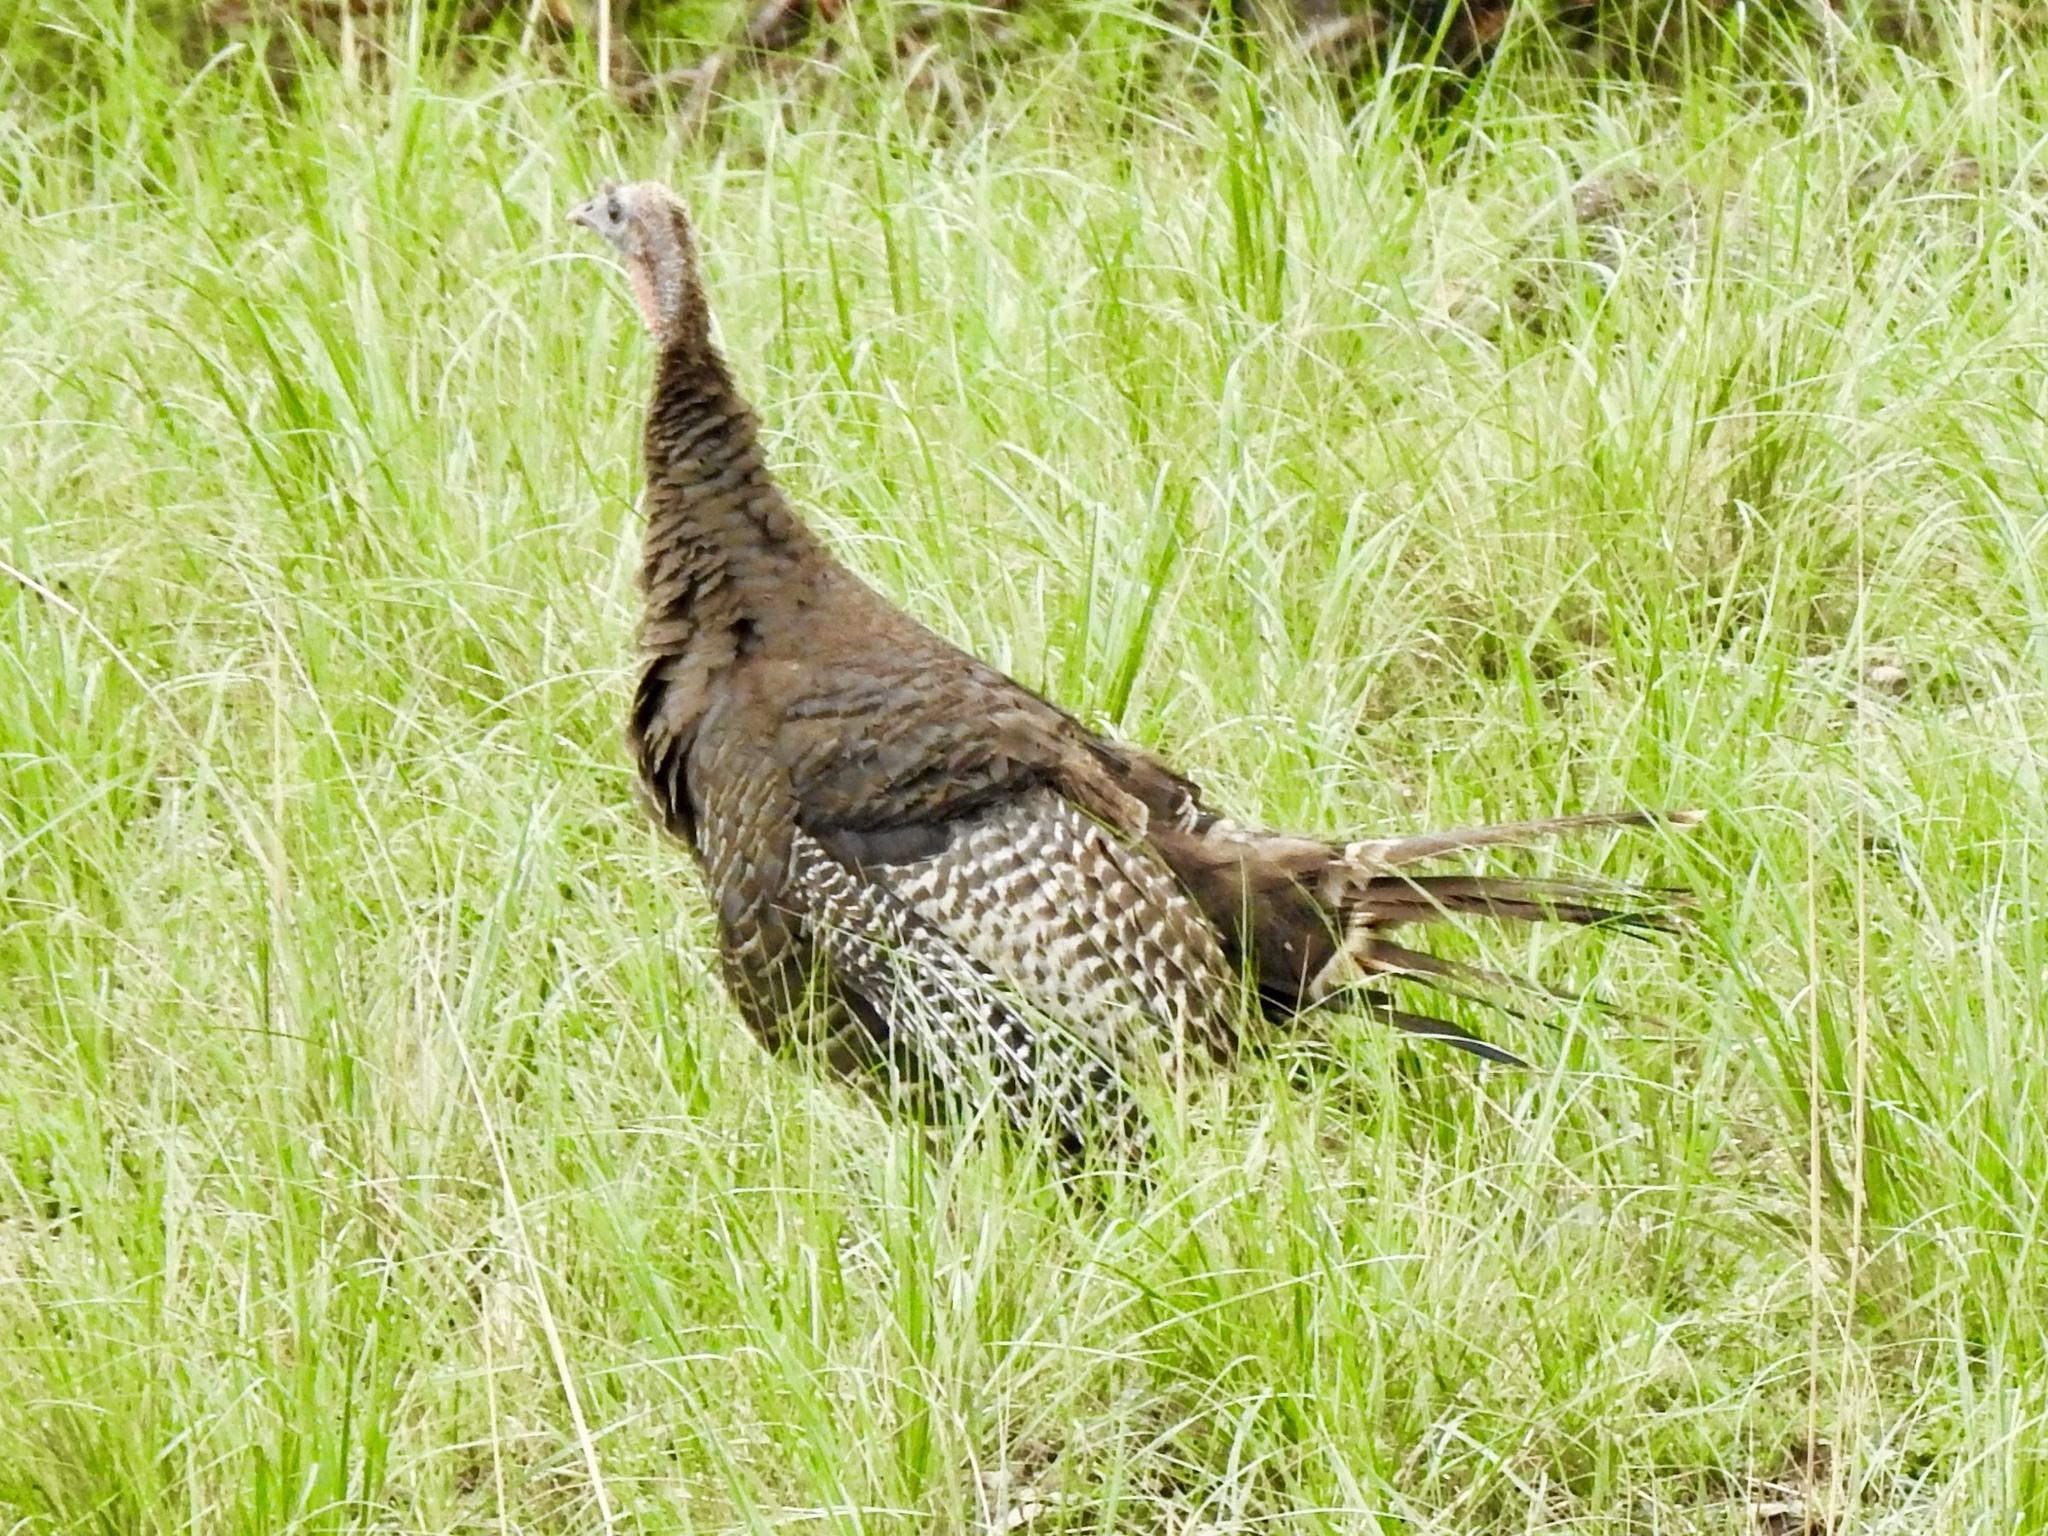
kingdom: Animalia
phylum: Chordata
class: Aves
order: Galliformes
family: Phasianidae
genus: Meleagris
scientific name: Meleagris gallopavo
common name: Wild turkey
